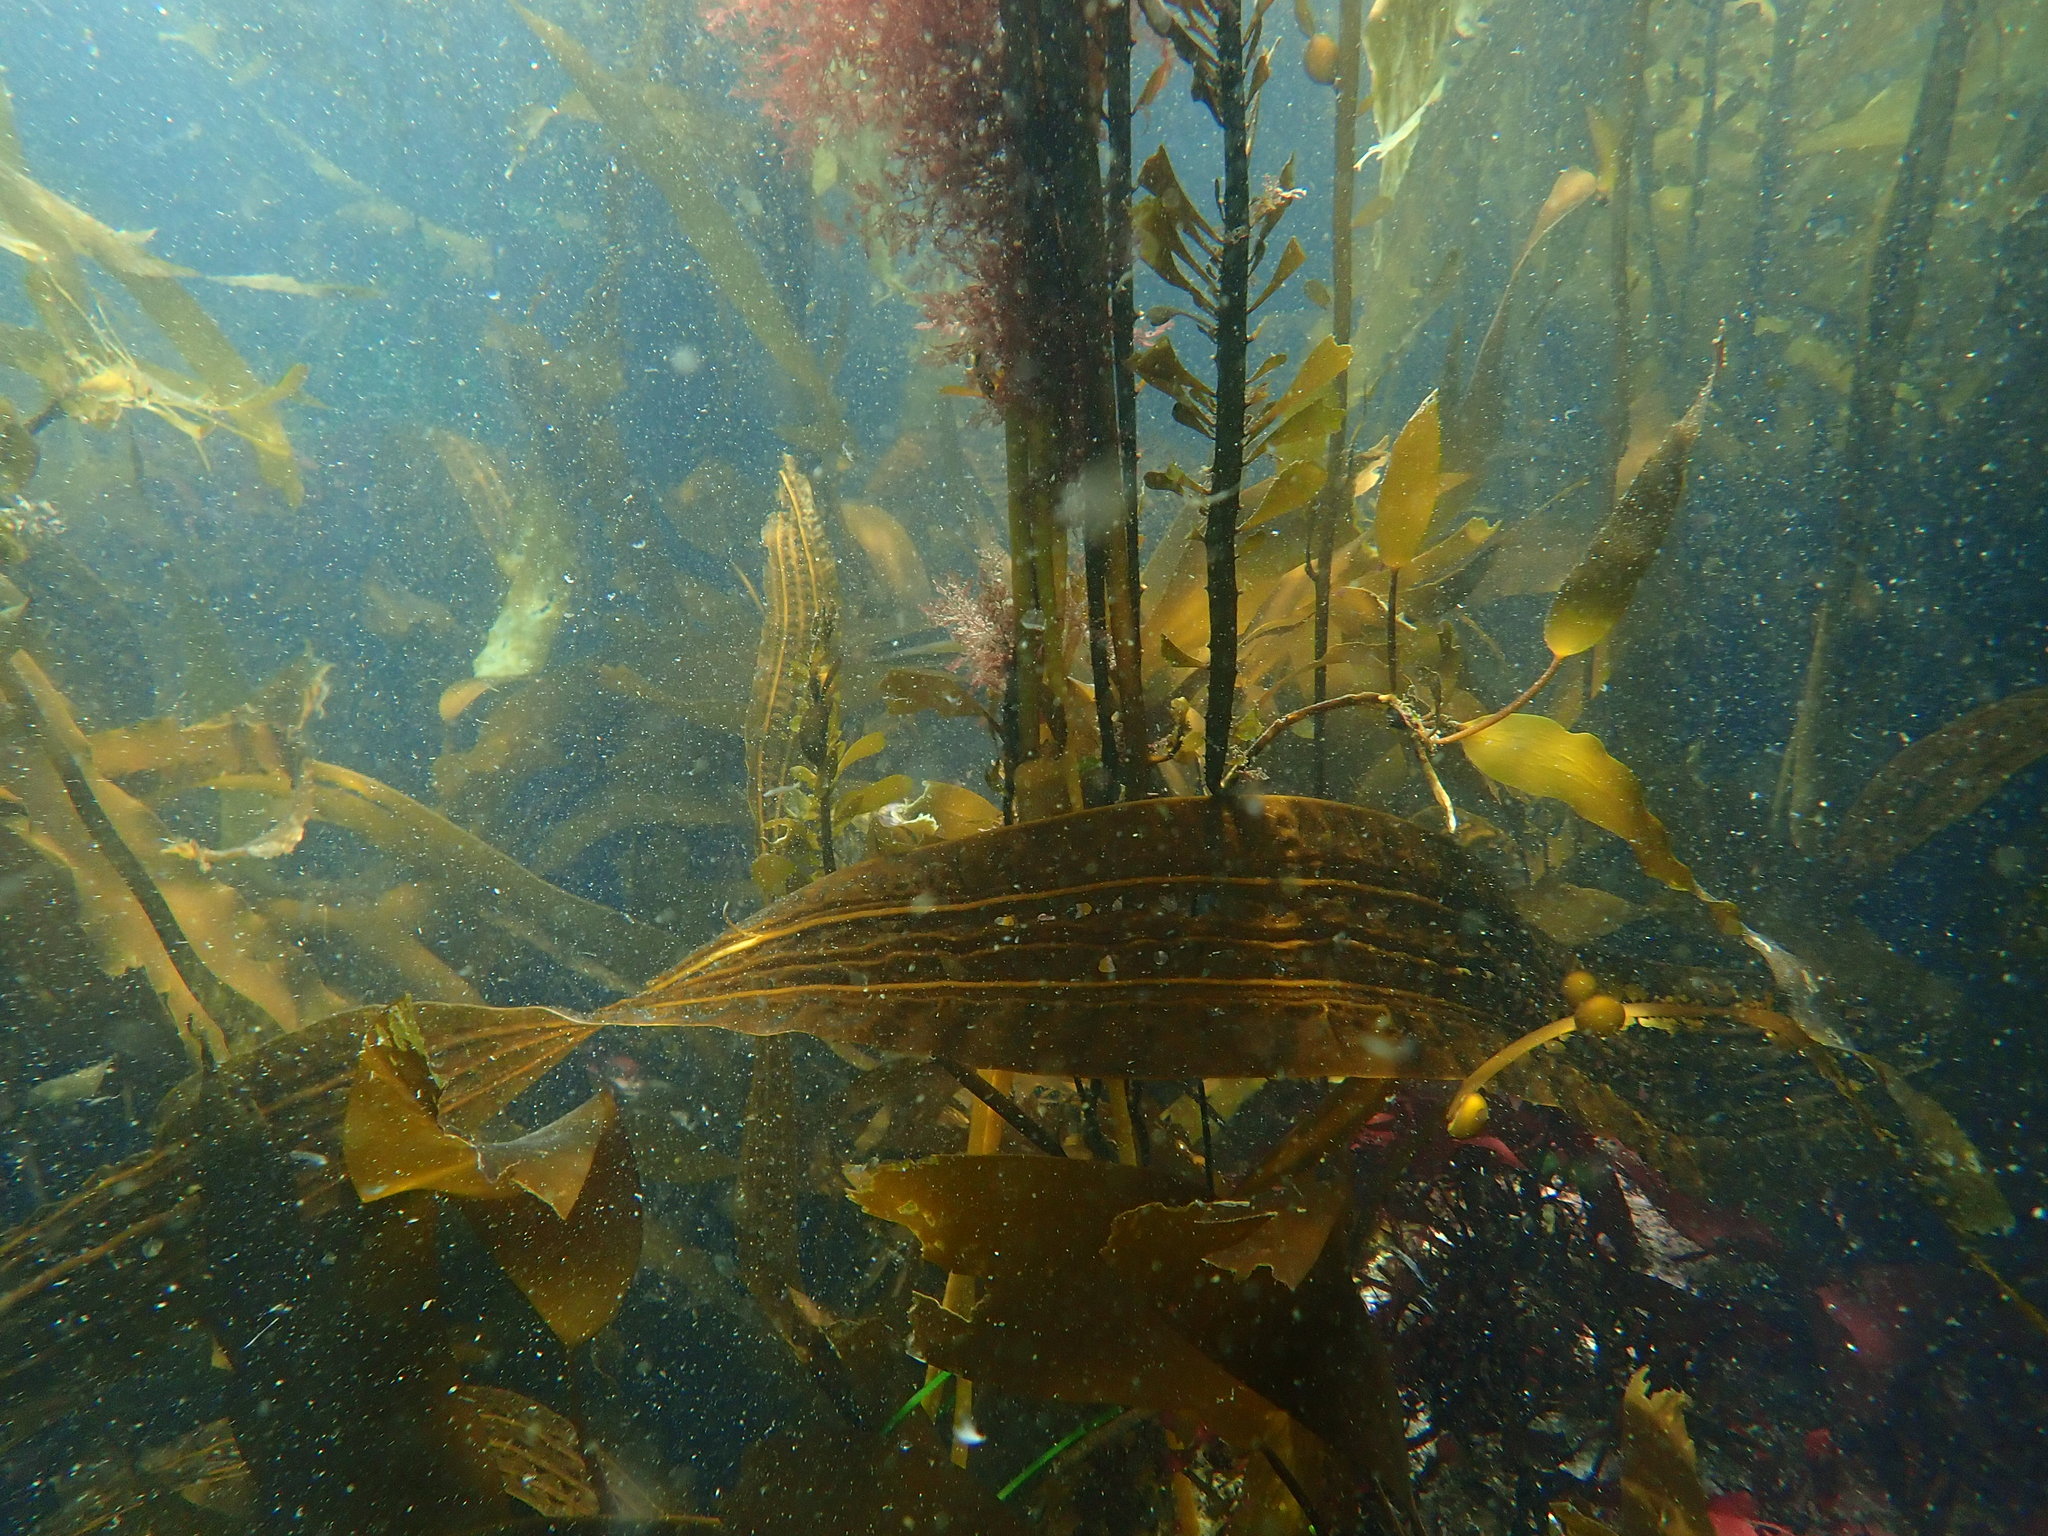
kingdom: Chromista
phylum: Ochrophyta
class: Phaeophyceae
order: Laminariales
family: Costariaceae
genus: Costaria
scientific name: Costaria costata
